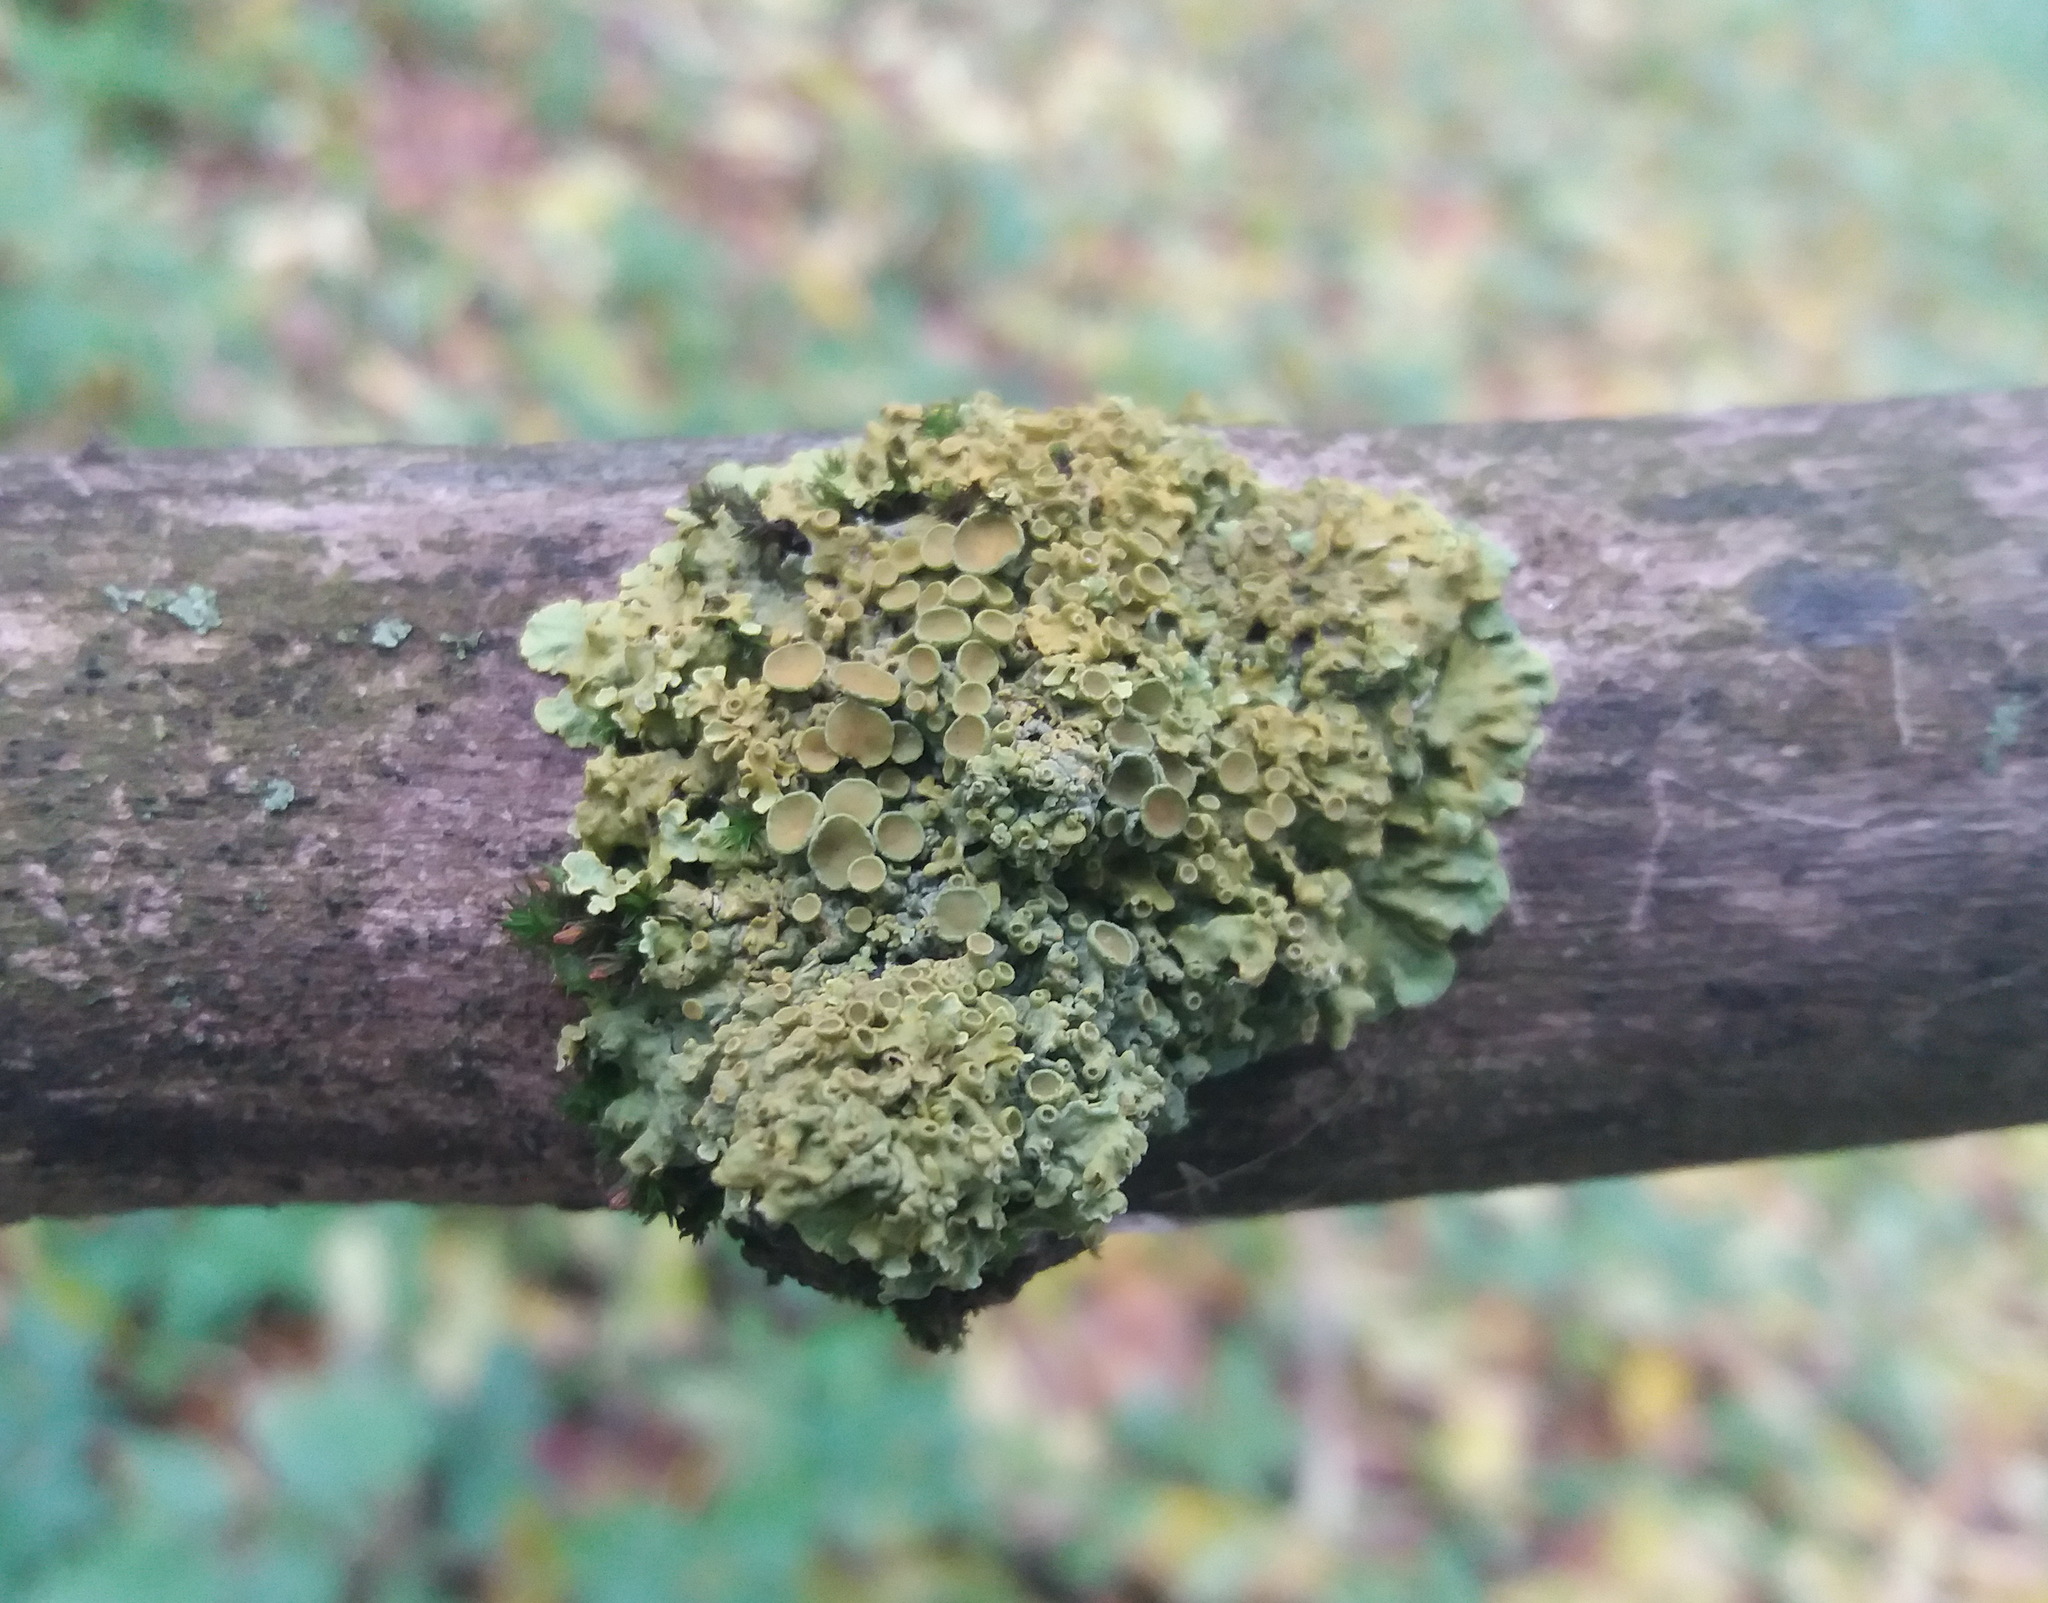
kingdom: Fungi
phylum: Ascomycota
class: Lecanoromycetes
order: Teloschistales
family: Teloschistaceae
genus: Xanthoria
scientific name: Xanthoria parietina
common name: Common orange lichen
